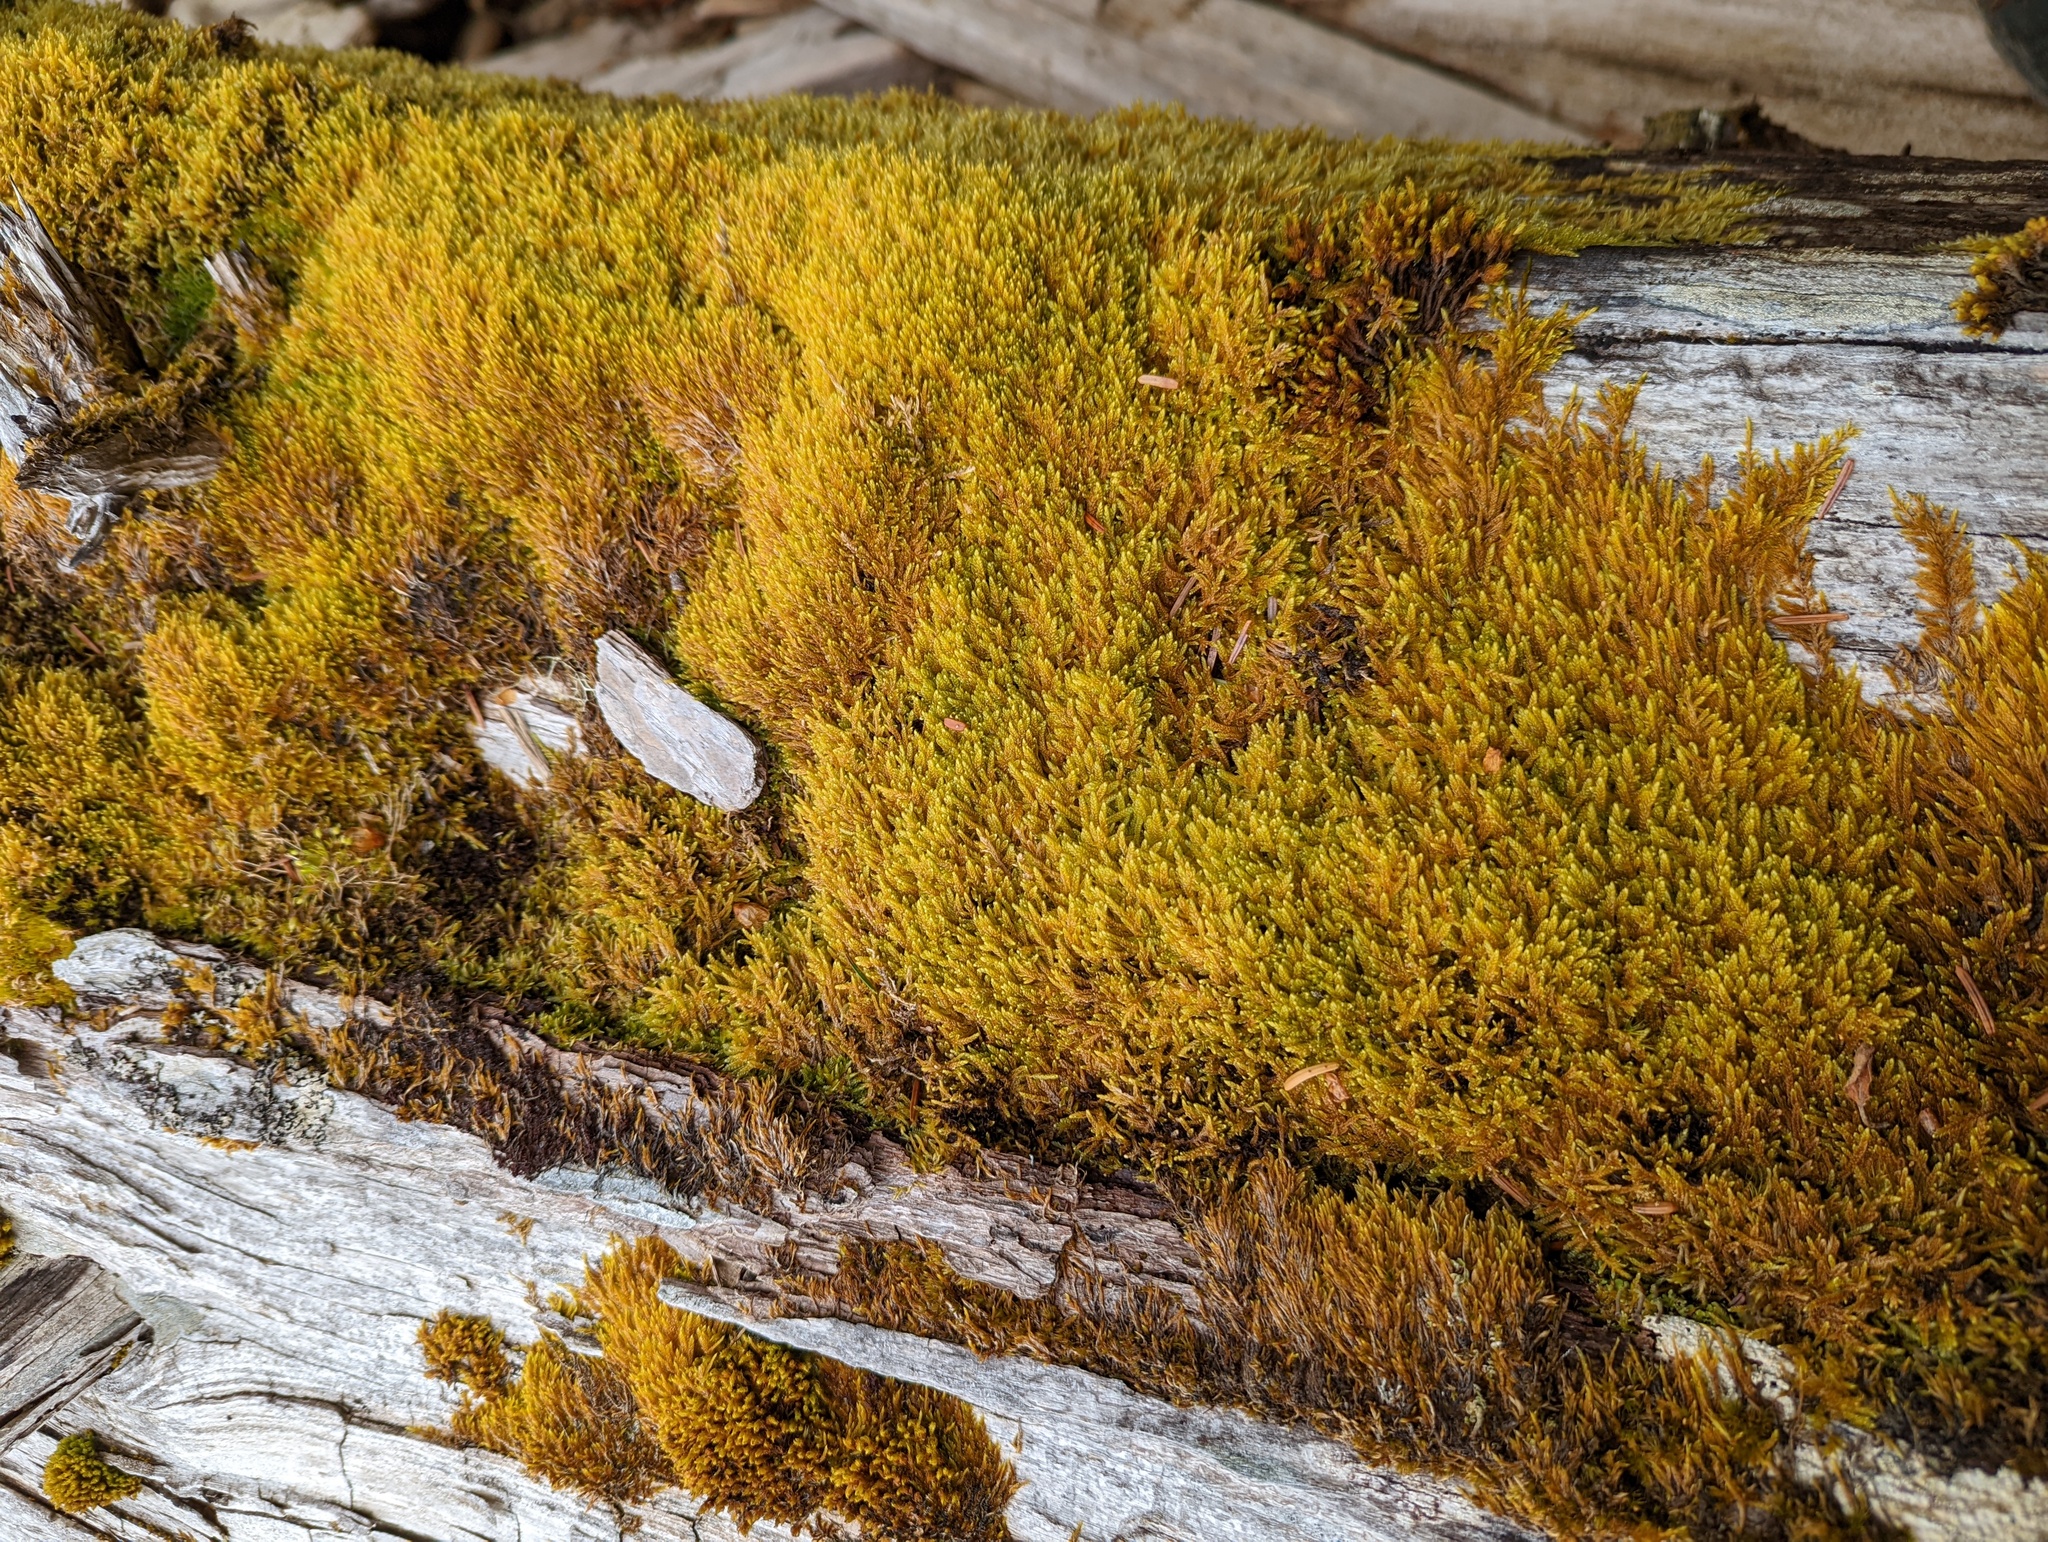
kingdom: Plantae
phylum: Bryophyta
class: Bryopsida
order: Hypnales
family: Hypnaceae
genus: Hypnum
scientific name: Hypnum cupressiforme
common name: Cypress-leaved plait-moss
